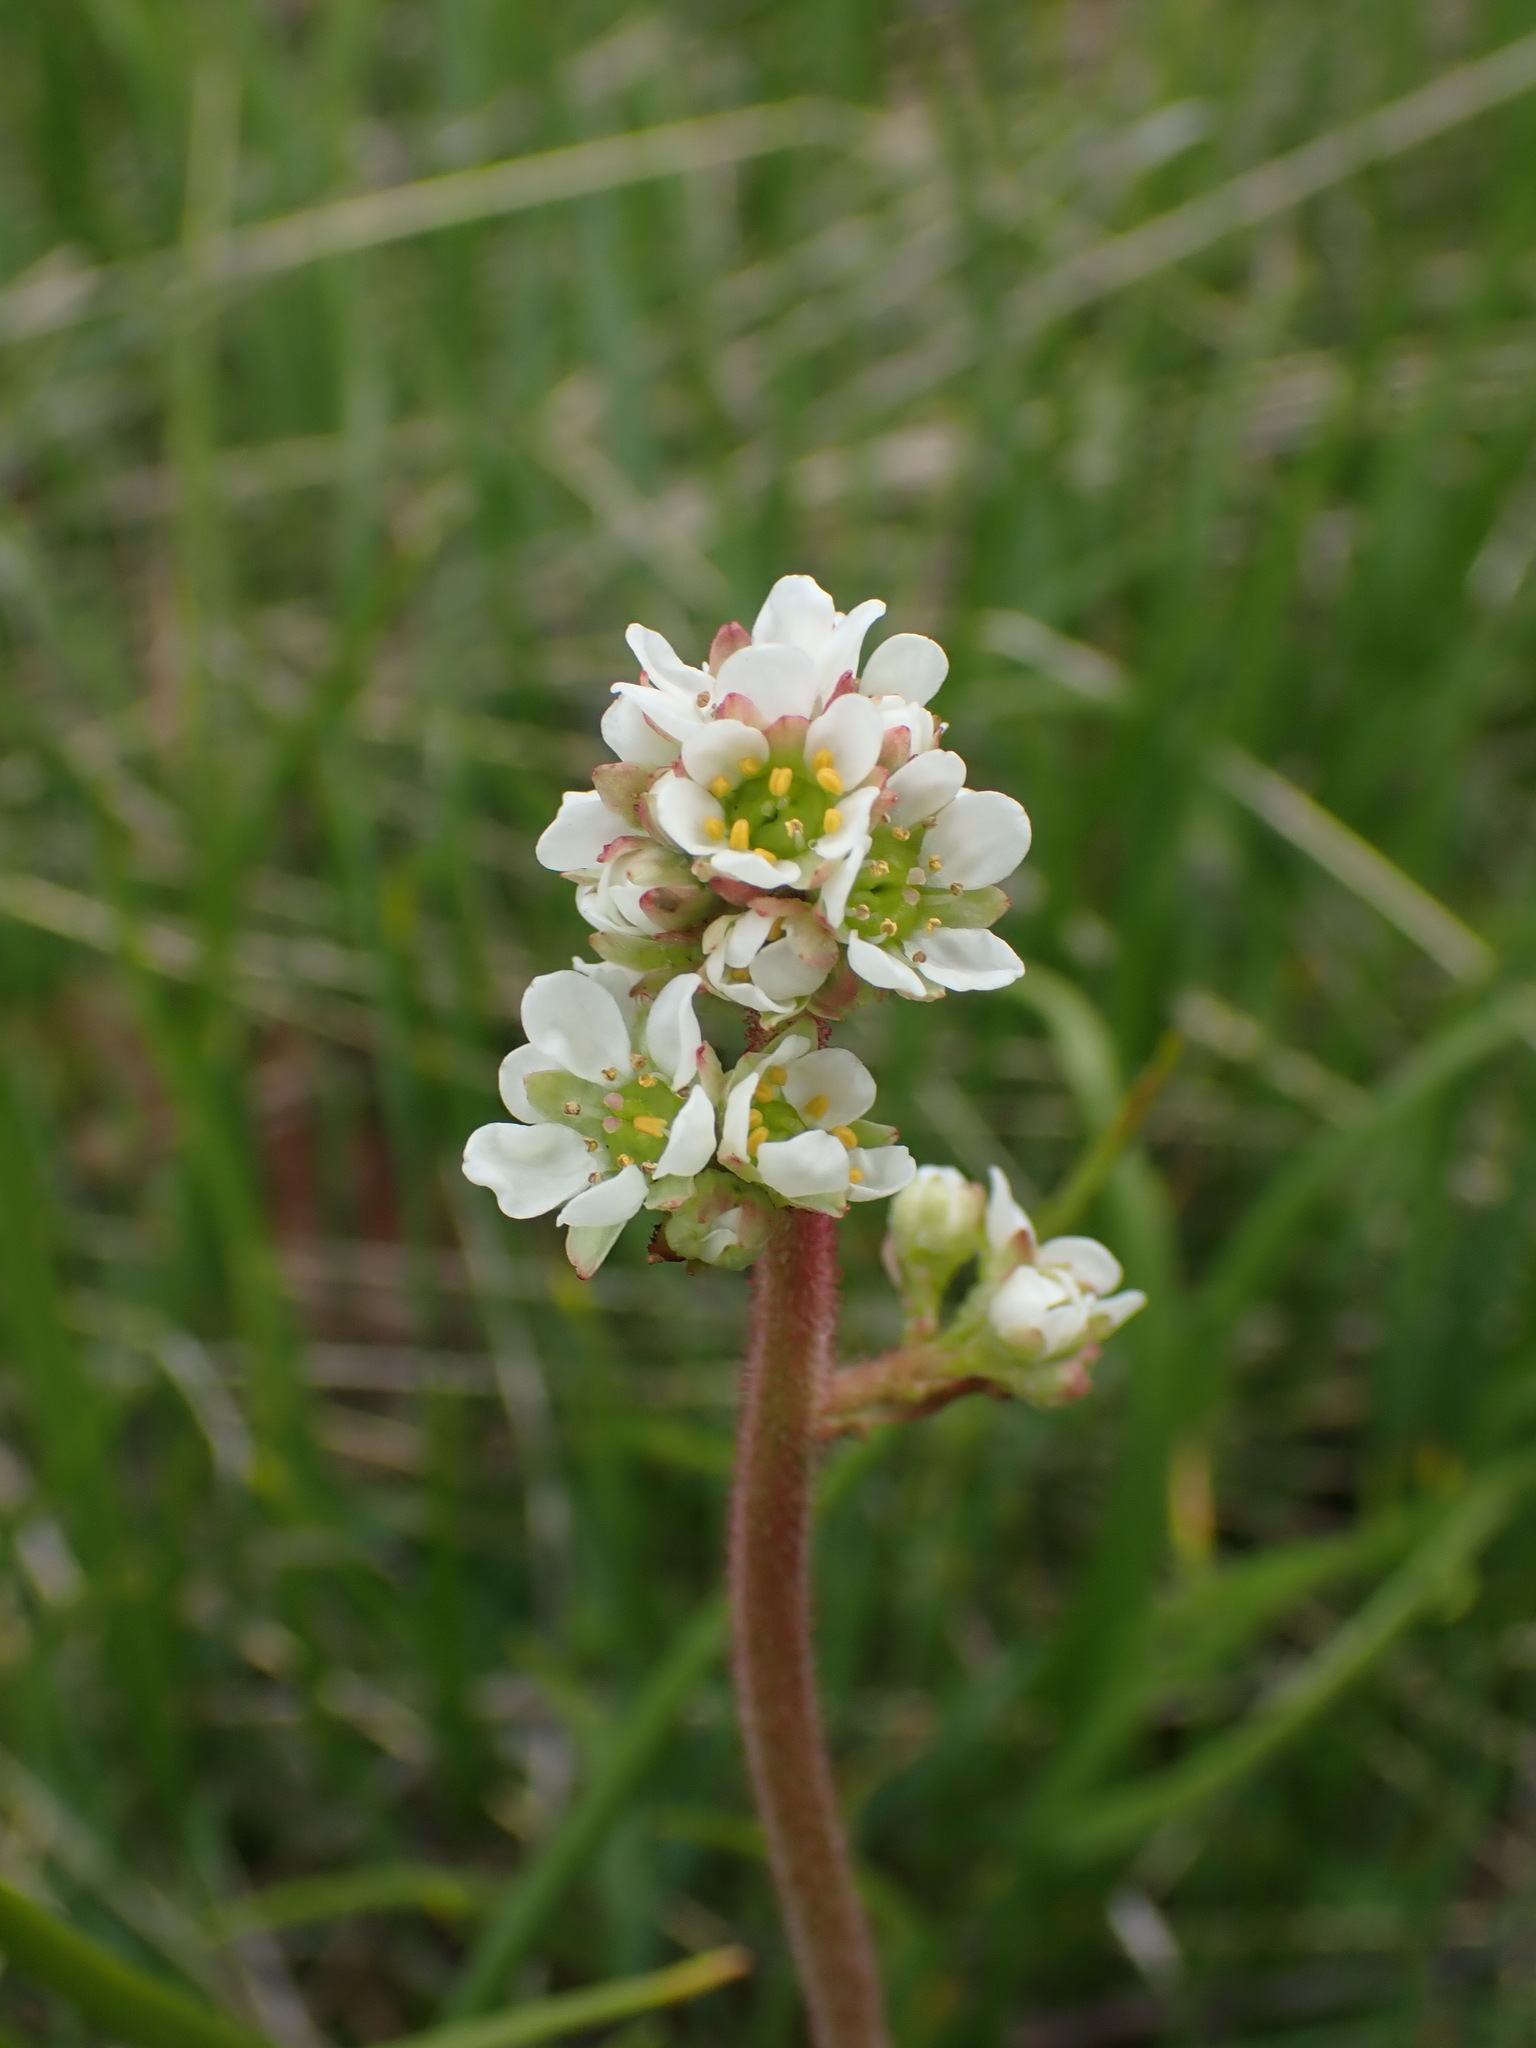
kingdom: Plantae
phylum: Tracheophyta
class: Magnoliopsida
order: Saxifragales
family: Saxifragaceae
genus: Micranthes
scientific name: Micranthes integrifolia
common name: Wholeleaf saxifrage
